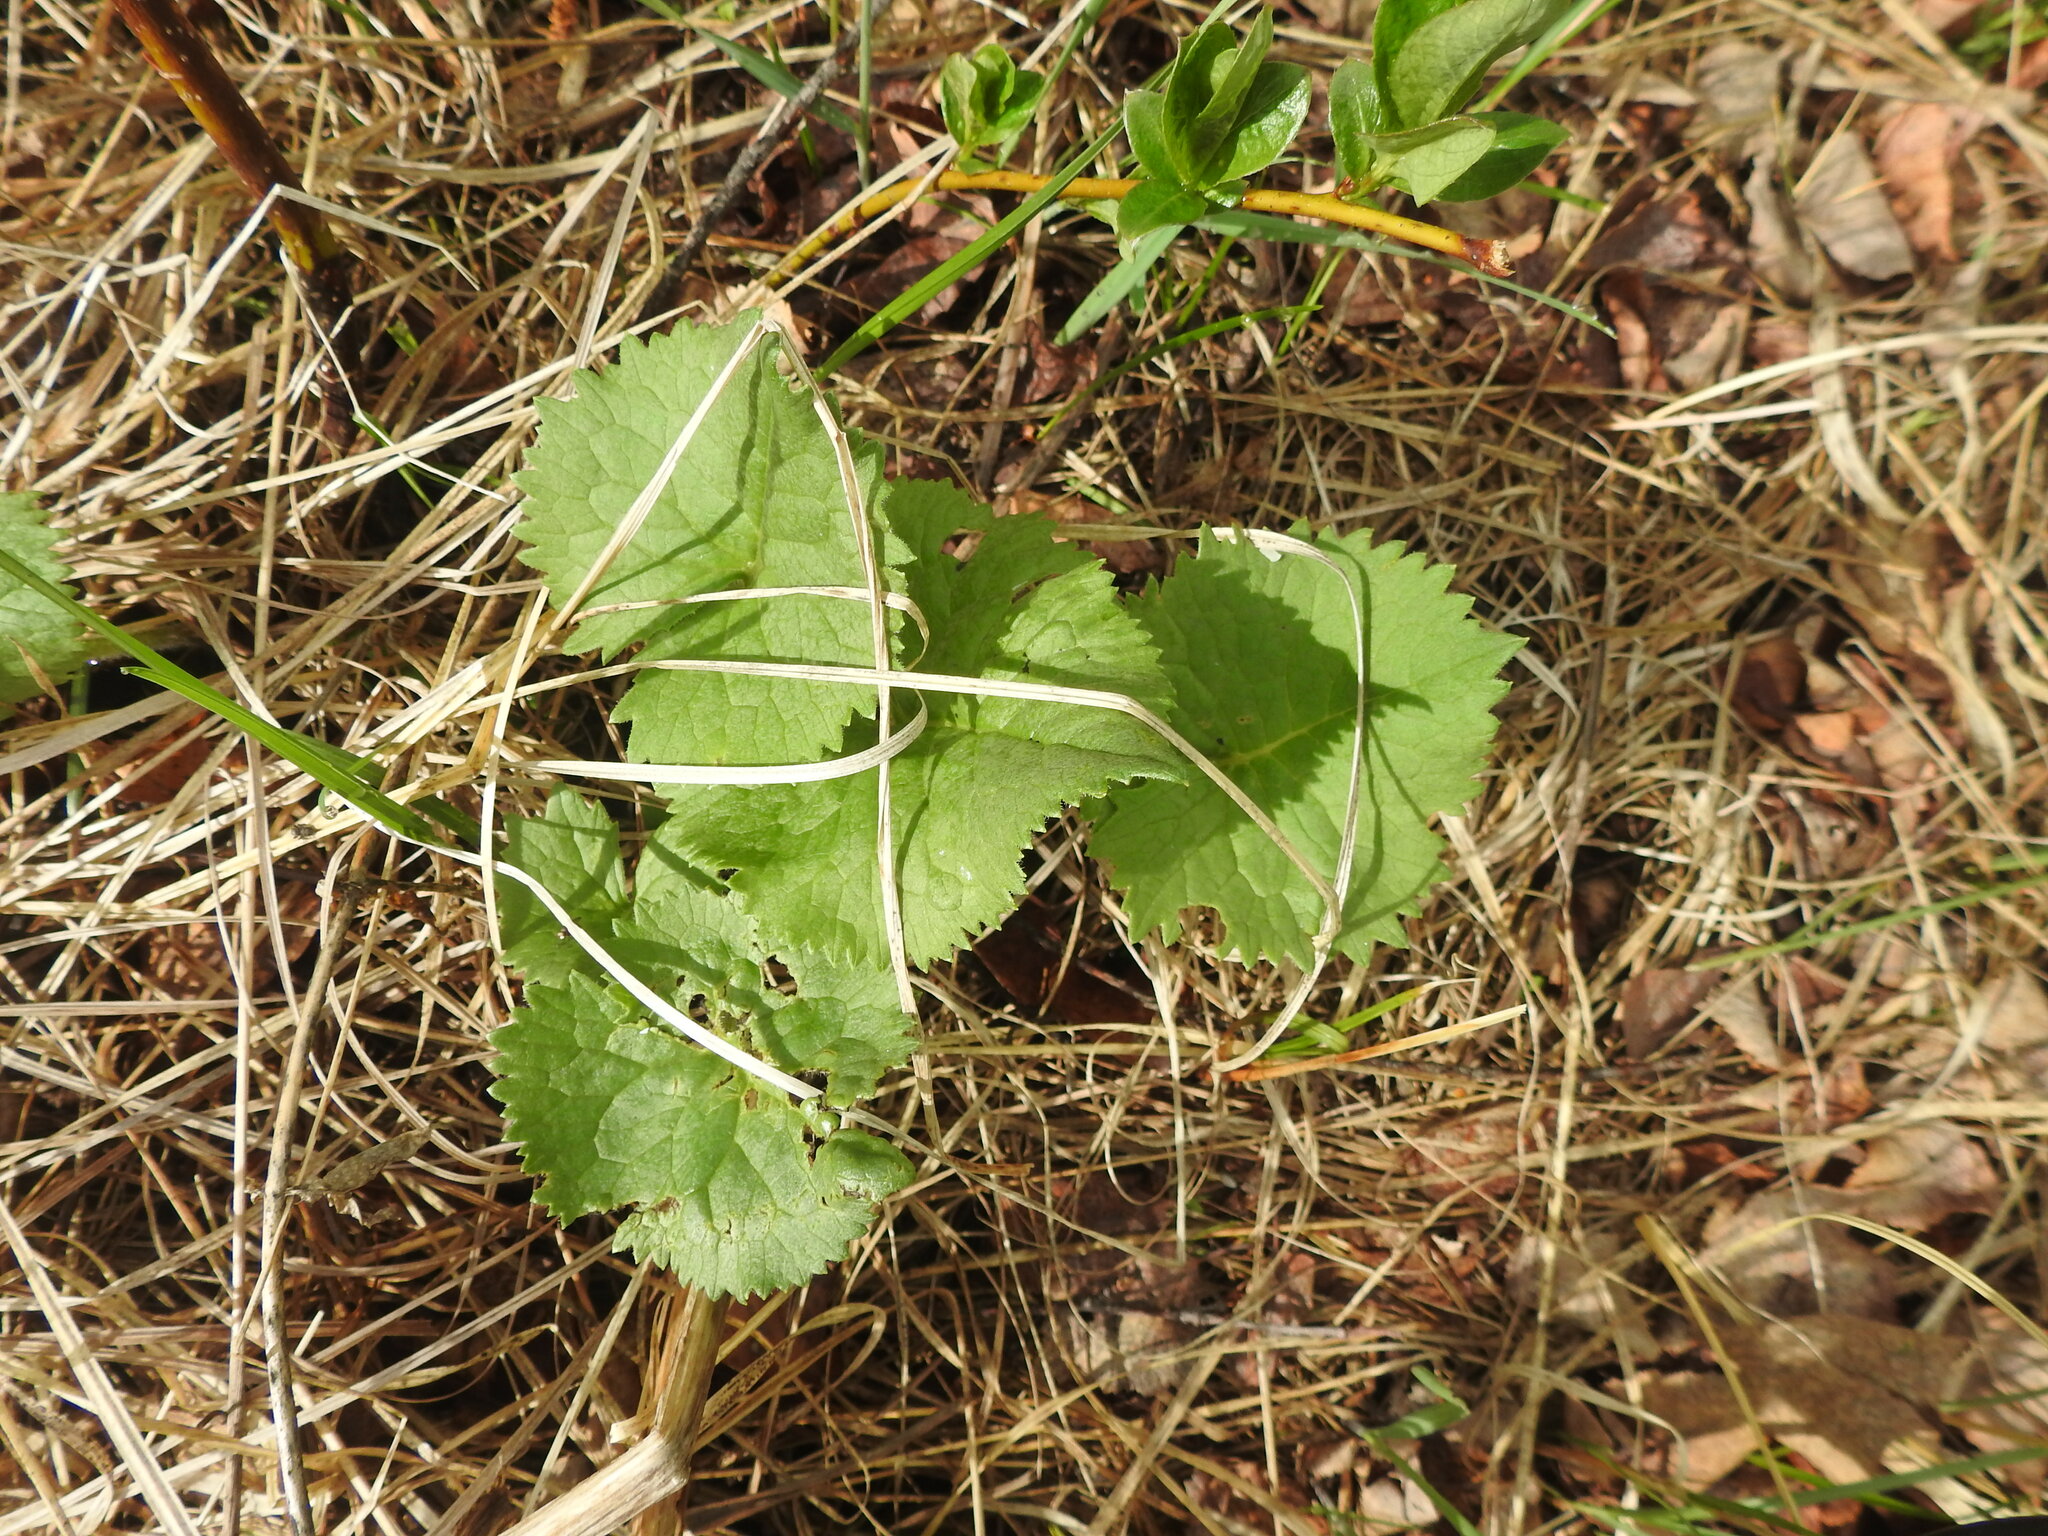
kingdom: Plantae
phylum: Tracheophyta
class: Magnoliopsida
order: Asterales
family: Asteraceae
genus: Ligularia
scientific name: Ligularia fischeri
